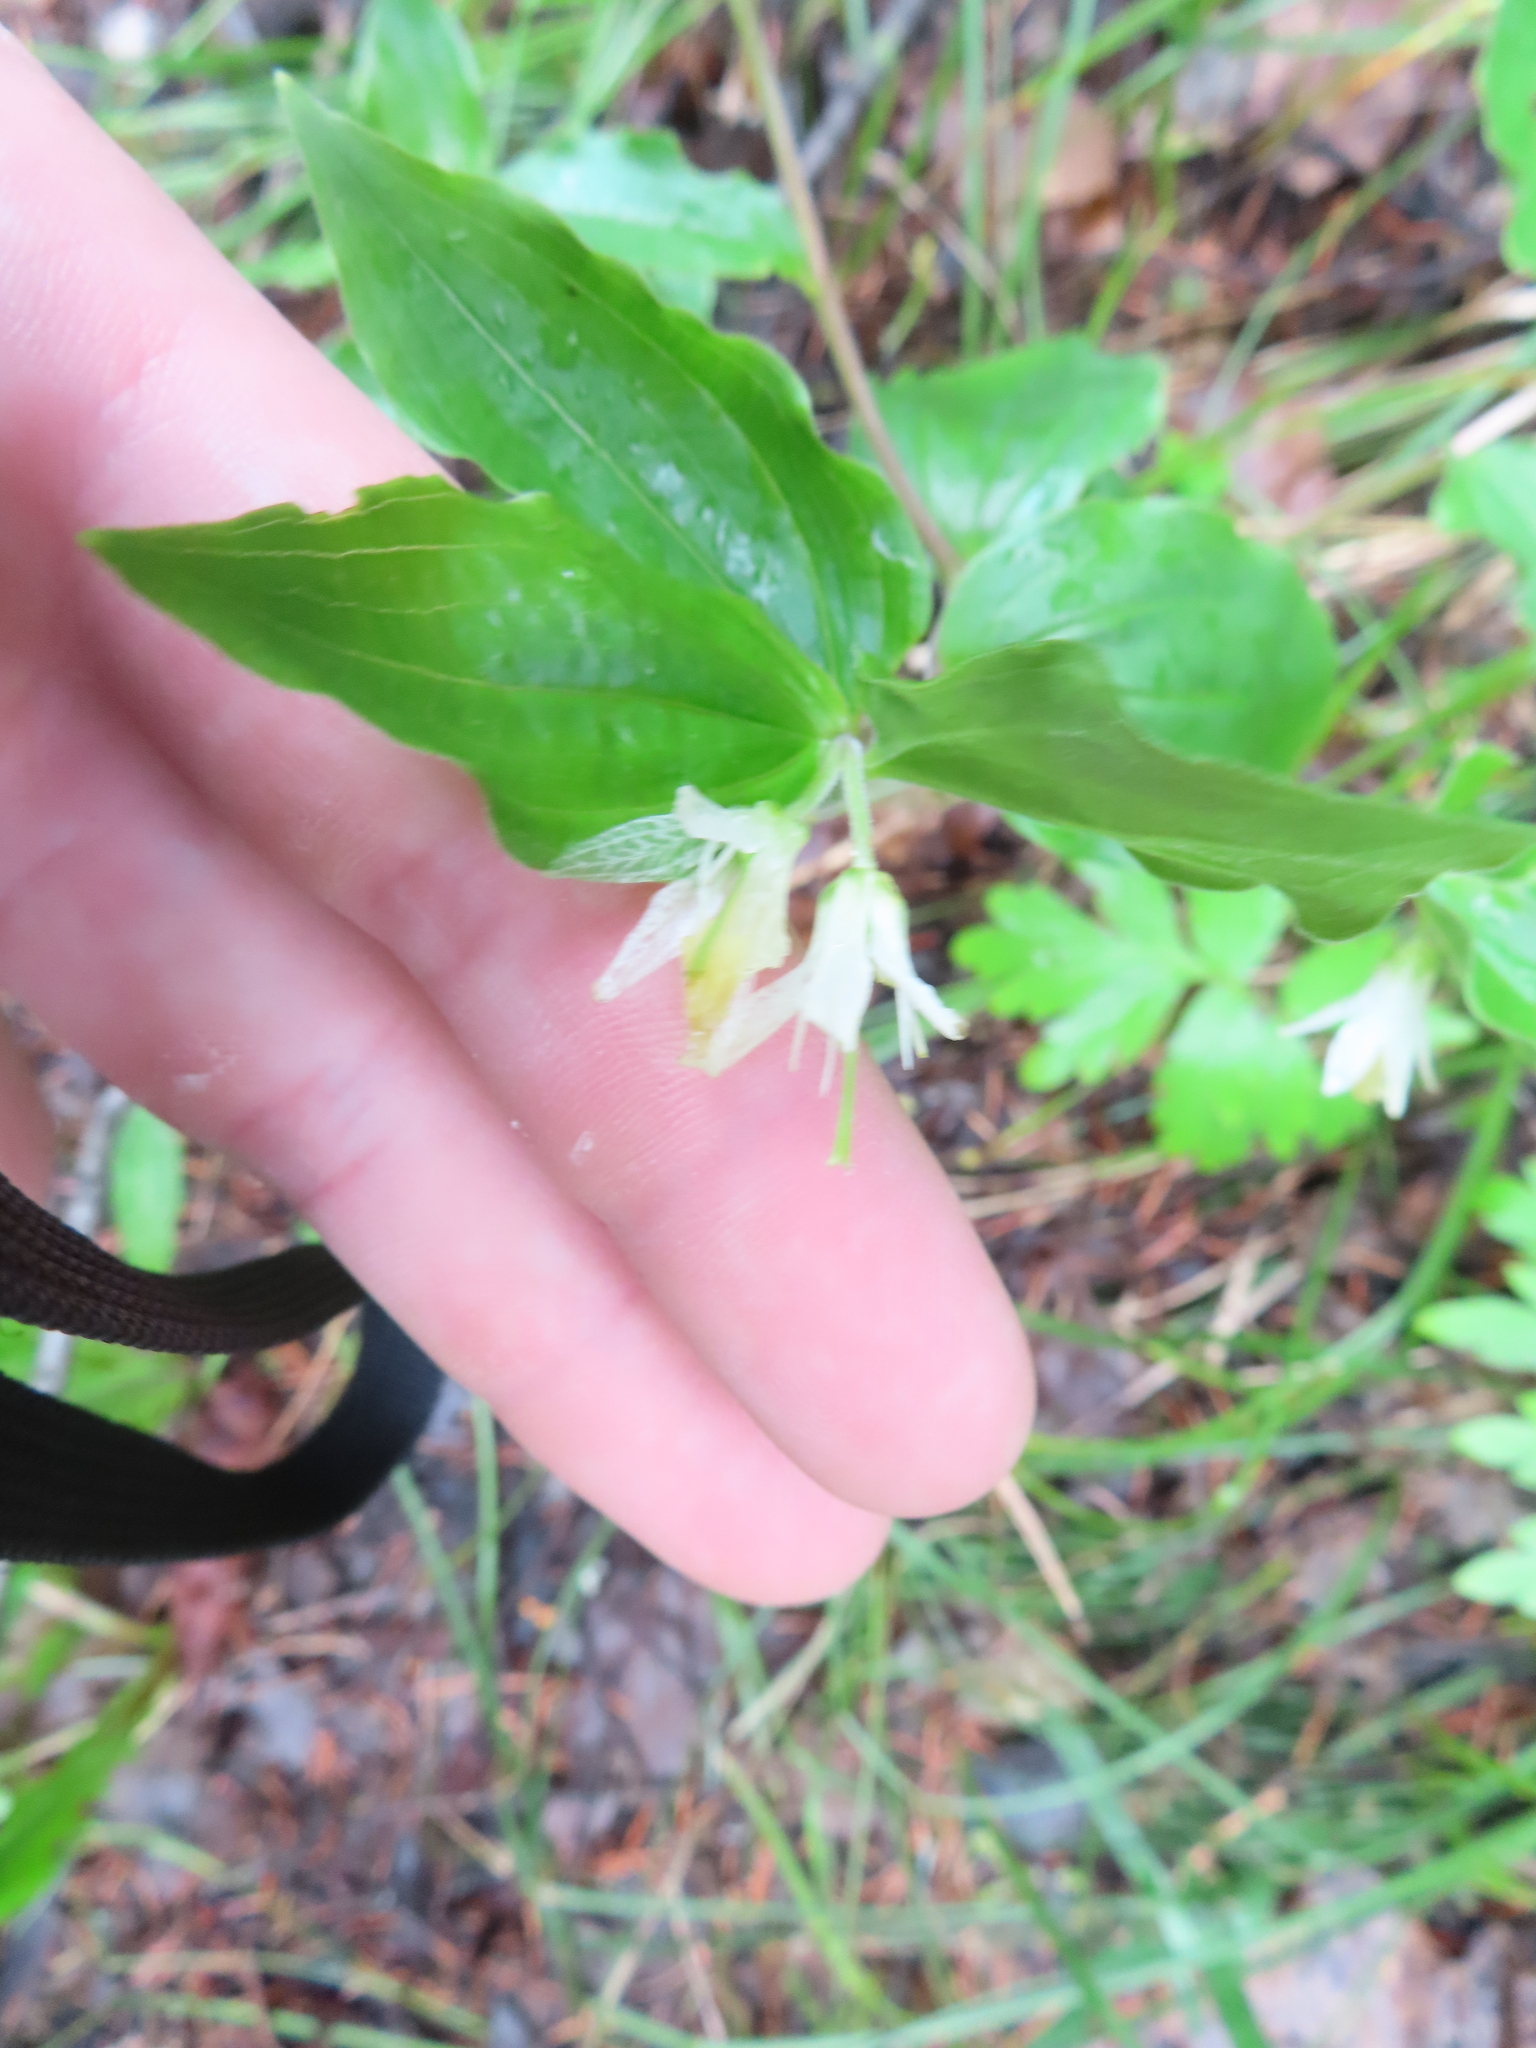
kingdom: Plantae
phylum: Tracheophyta
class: Liliopsida
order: Liliales
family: Liliaceae
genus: Prosartes
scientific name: Prosartes trachycarpa
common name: Rough-fruit fairy-bells
